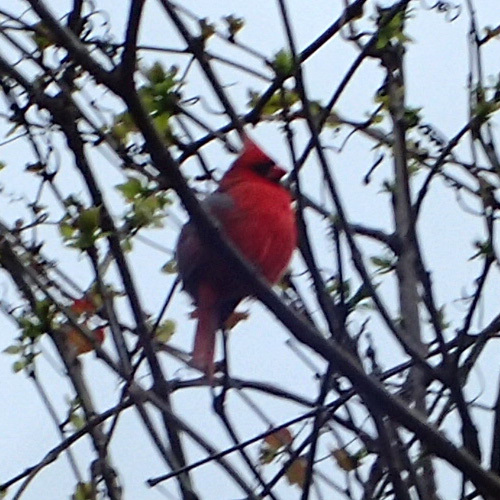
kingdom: Animalia
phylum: Chordata
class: Aves
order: Passeriformes
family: Cardinalidae
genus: Cardinalis
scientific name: Cardinalis cardinalis
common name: Northern cardinal
